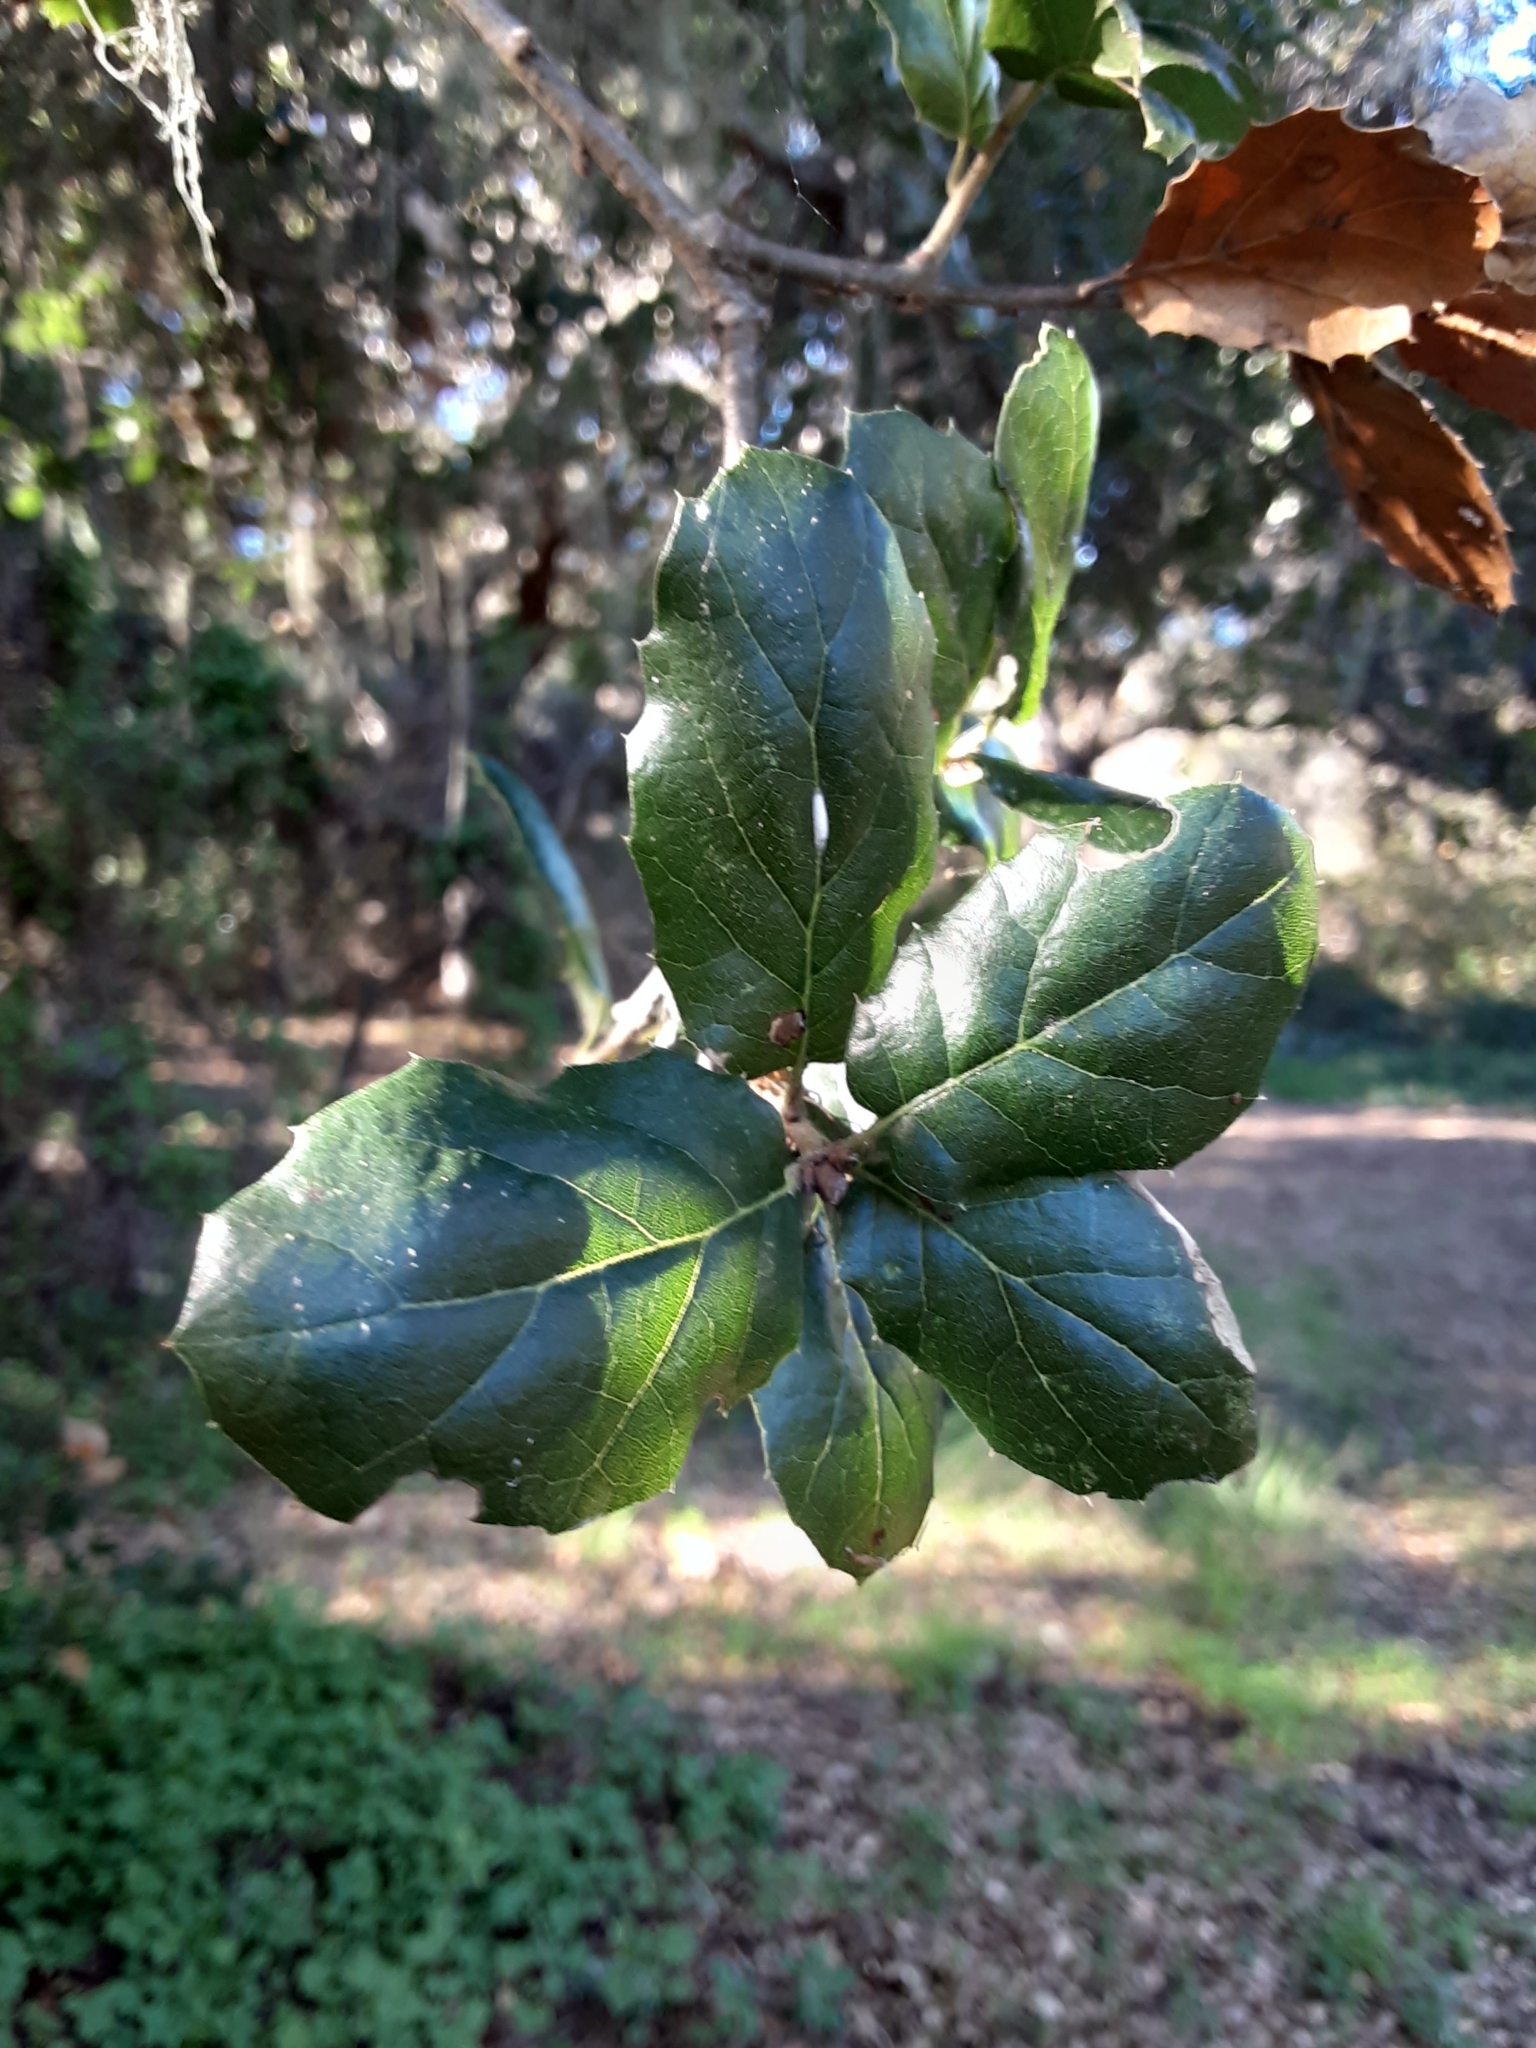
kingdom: Plantae
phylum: Tracheophyta
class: Magnoliopsida
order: Fagales
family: Fagaceae
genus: Quercus
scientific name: Quercus agrifolia
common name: California live oak
